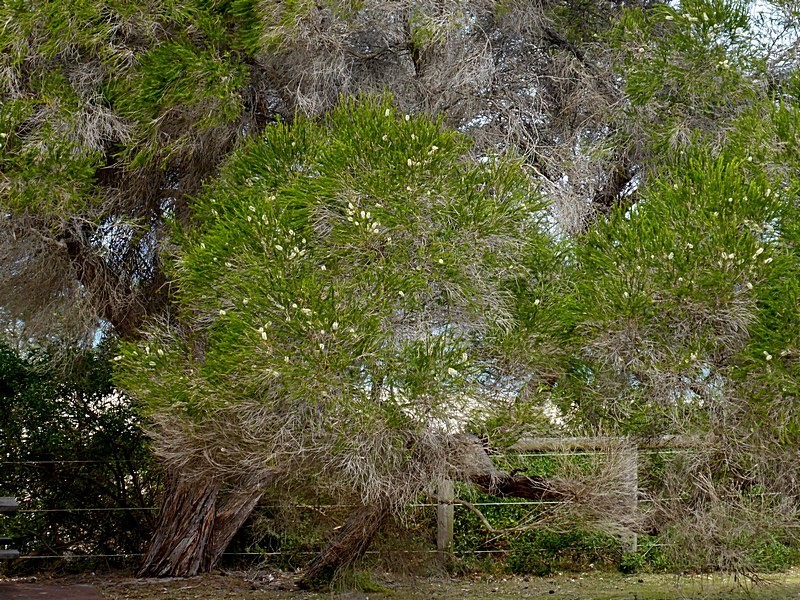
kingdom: Plantae
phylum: Tracheophyta
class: Magnoliopsida
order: Myrtales
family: Myrtaceae
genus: Melaleuca
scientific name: Melaleuca armillaris
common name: Bracelet honey myrtle
